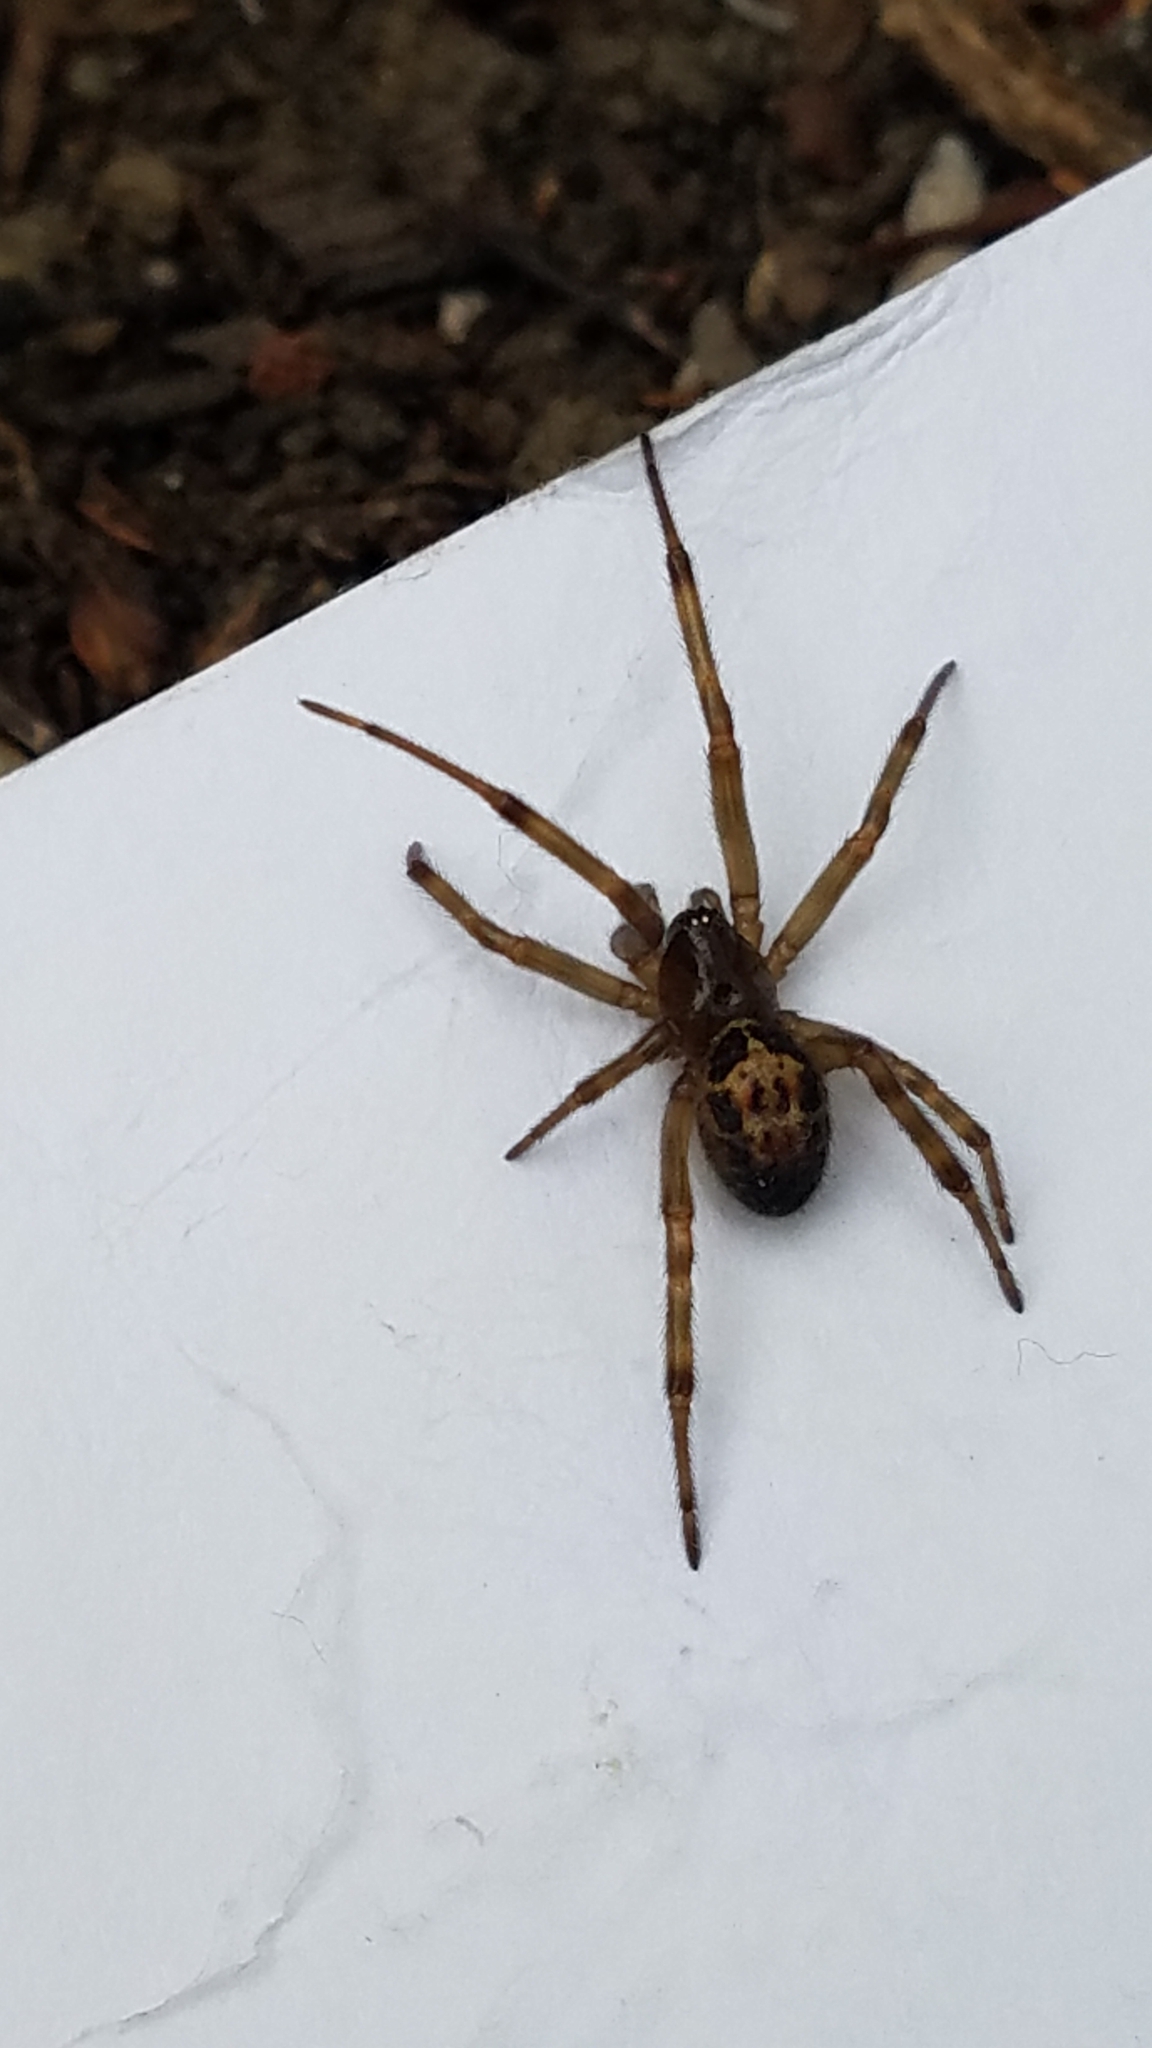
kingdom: Animalia
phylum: Arthropoda
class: Arachnida
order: Araneae
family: Theridiidae
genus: Steatoda
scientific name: Steatoda nobilis
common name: Cobweb weaver
